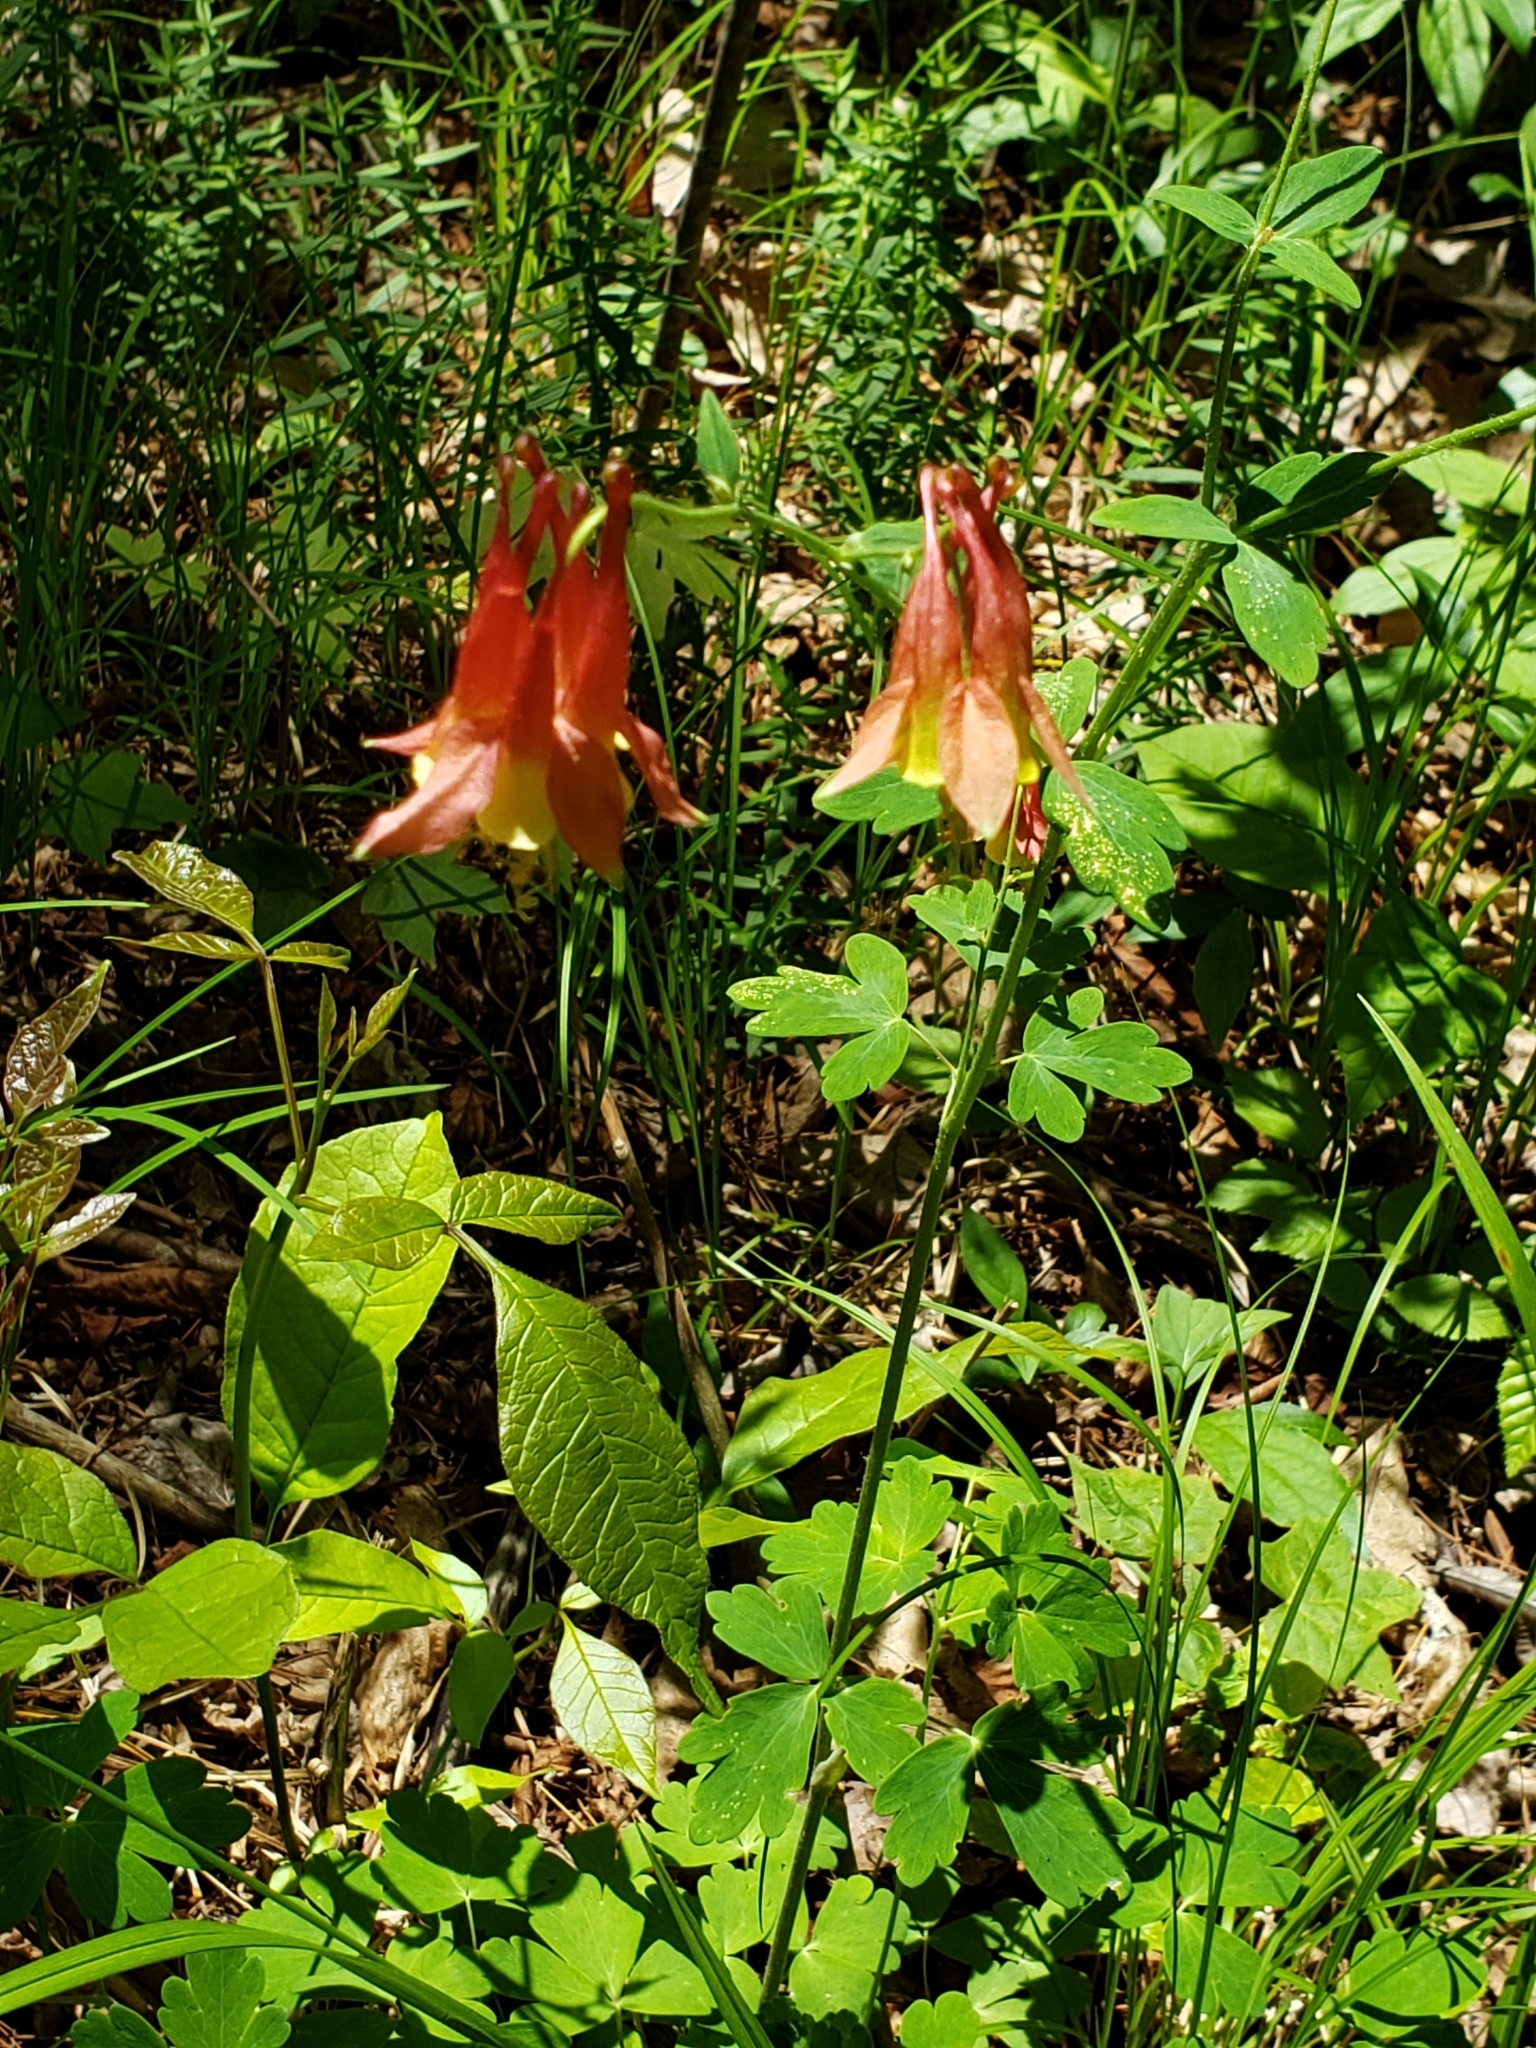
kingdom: Plantae
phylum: Tracheophyta
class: Magnoliopsida
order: Ranunculales
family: Ranunculaceae
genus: Aquilegia
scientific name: Aquilegia canadensis
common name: American columbine
